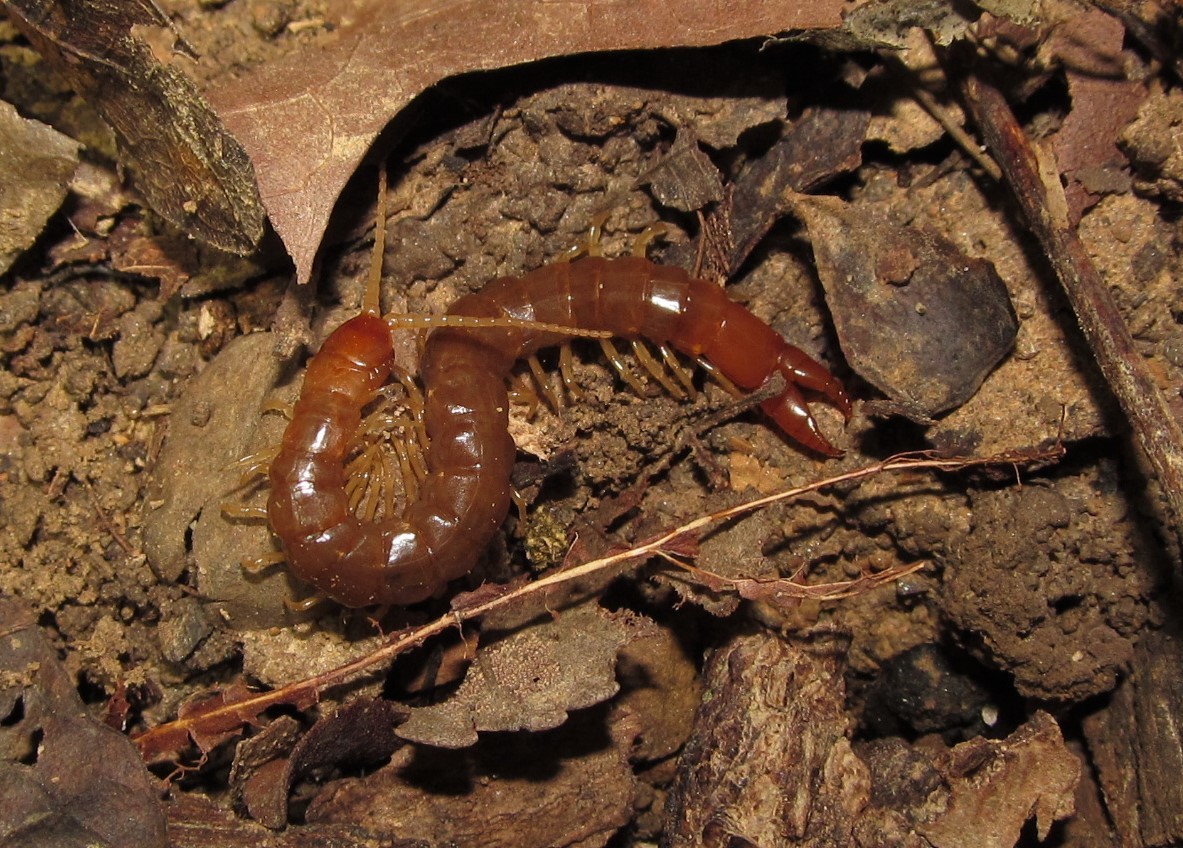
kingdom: Animalia
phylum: Arthropoda
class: Chilopoda
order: Scolopendromorpha
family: Cryptopidae
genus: Theatops
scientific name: Theatops posticus
